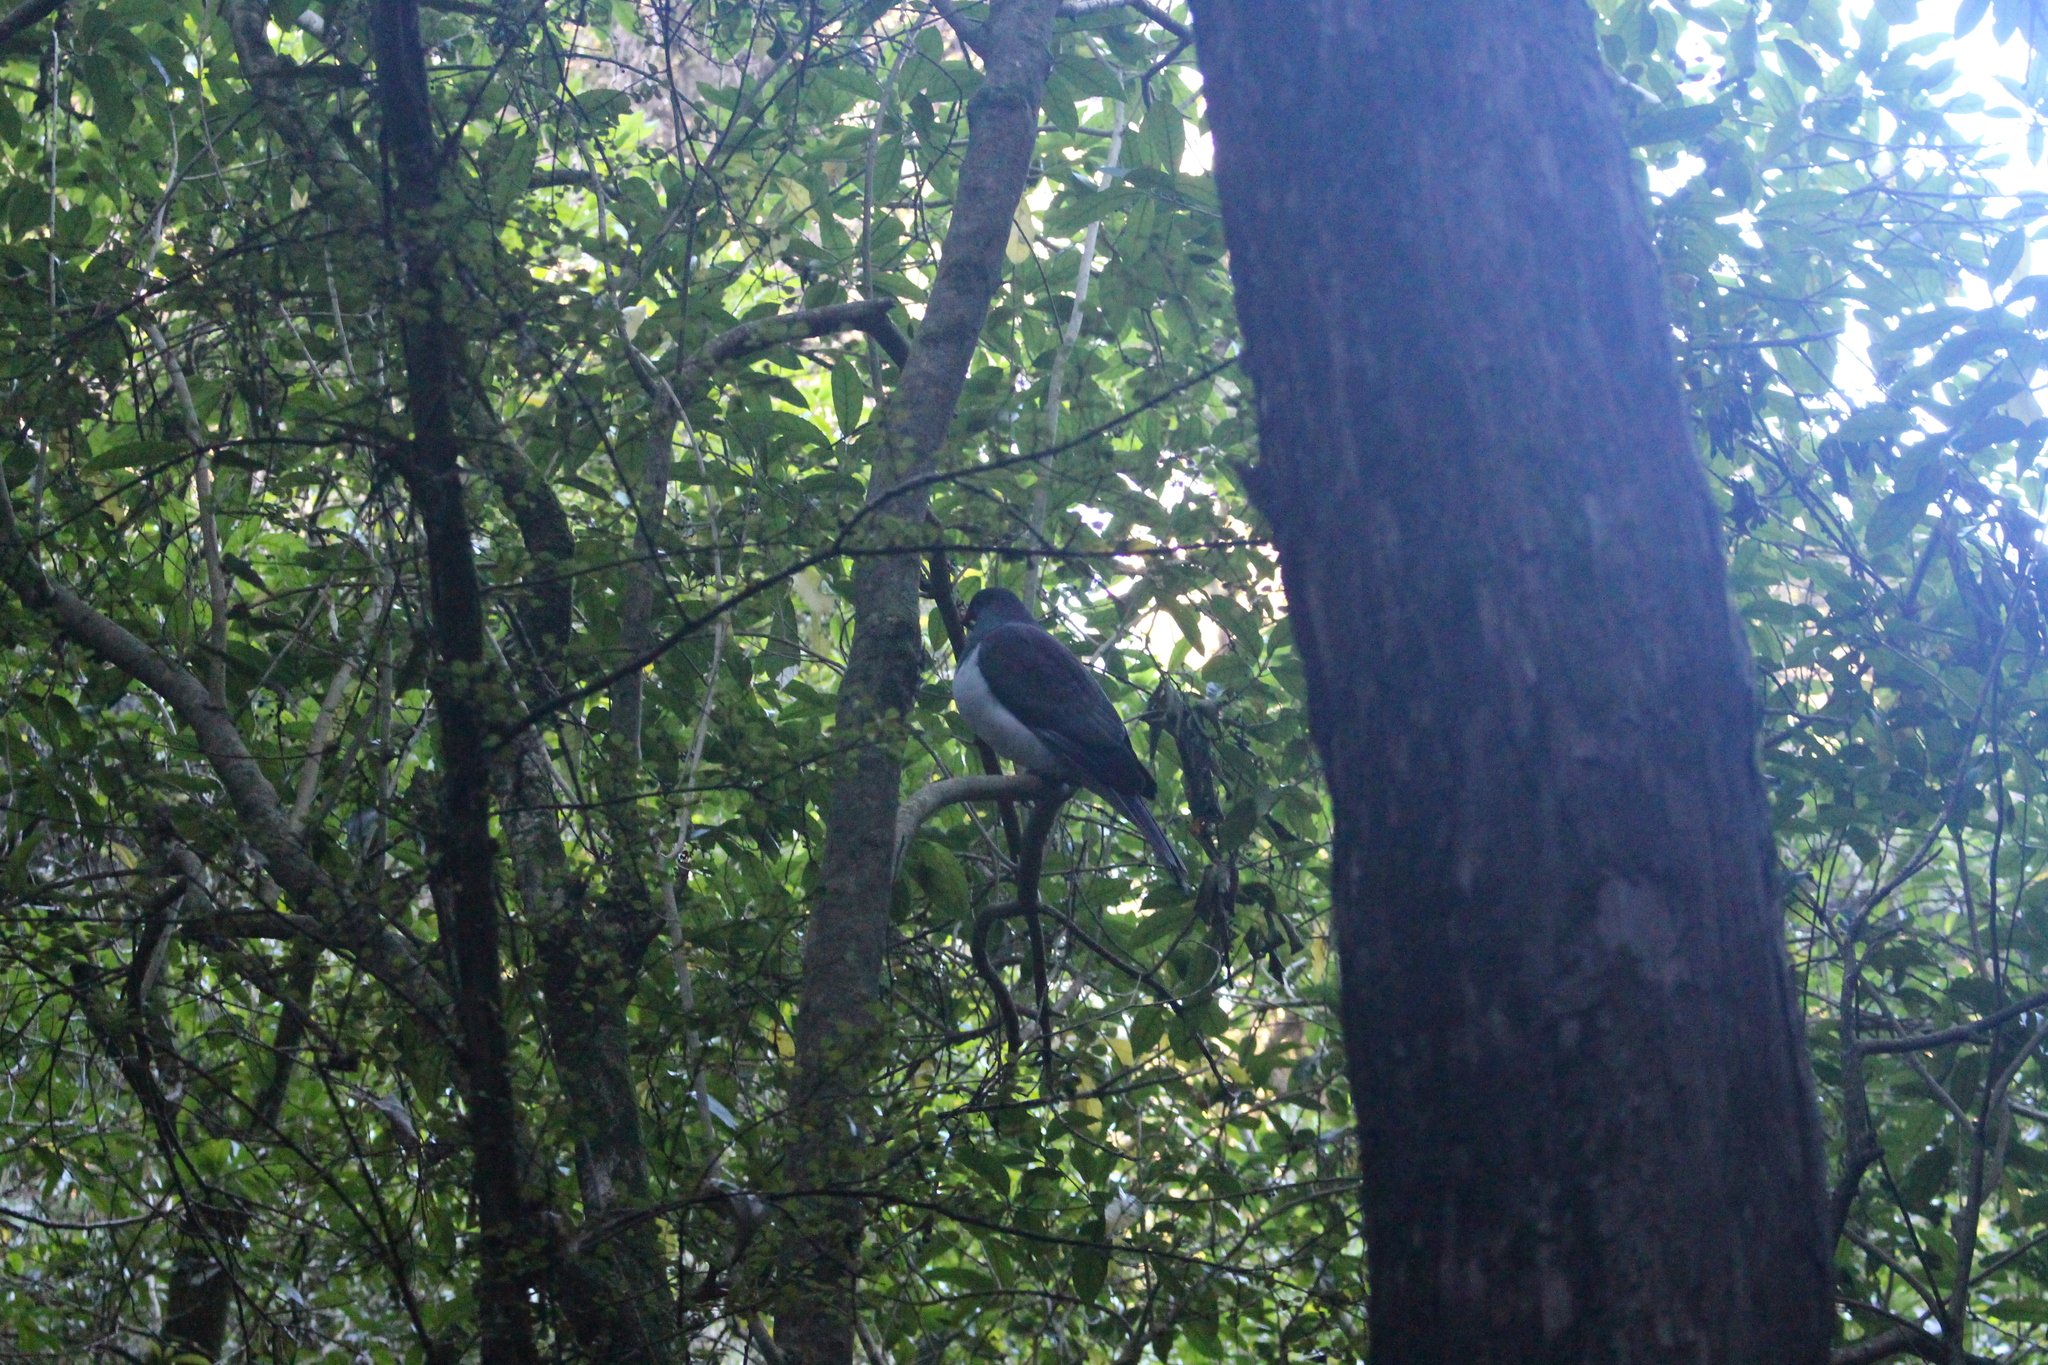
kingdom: Animalia
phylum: Chordata
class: Aves
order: Columbiformes
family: Columbidae
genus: Hemiphaga
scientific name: Hemiphaga novaeseelandiae
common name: New zealand pigeon
